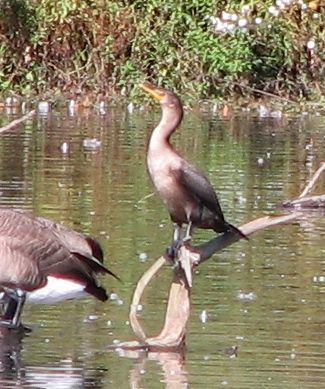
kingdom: Animalia
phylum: Chordata
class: Aves
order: Suliformes
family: Phalacrocoracidae
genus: Phalacrocorax
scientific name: Phalacrocorax auritus
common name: Double-crested cormorant
